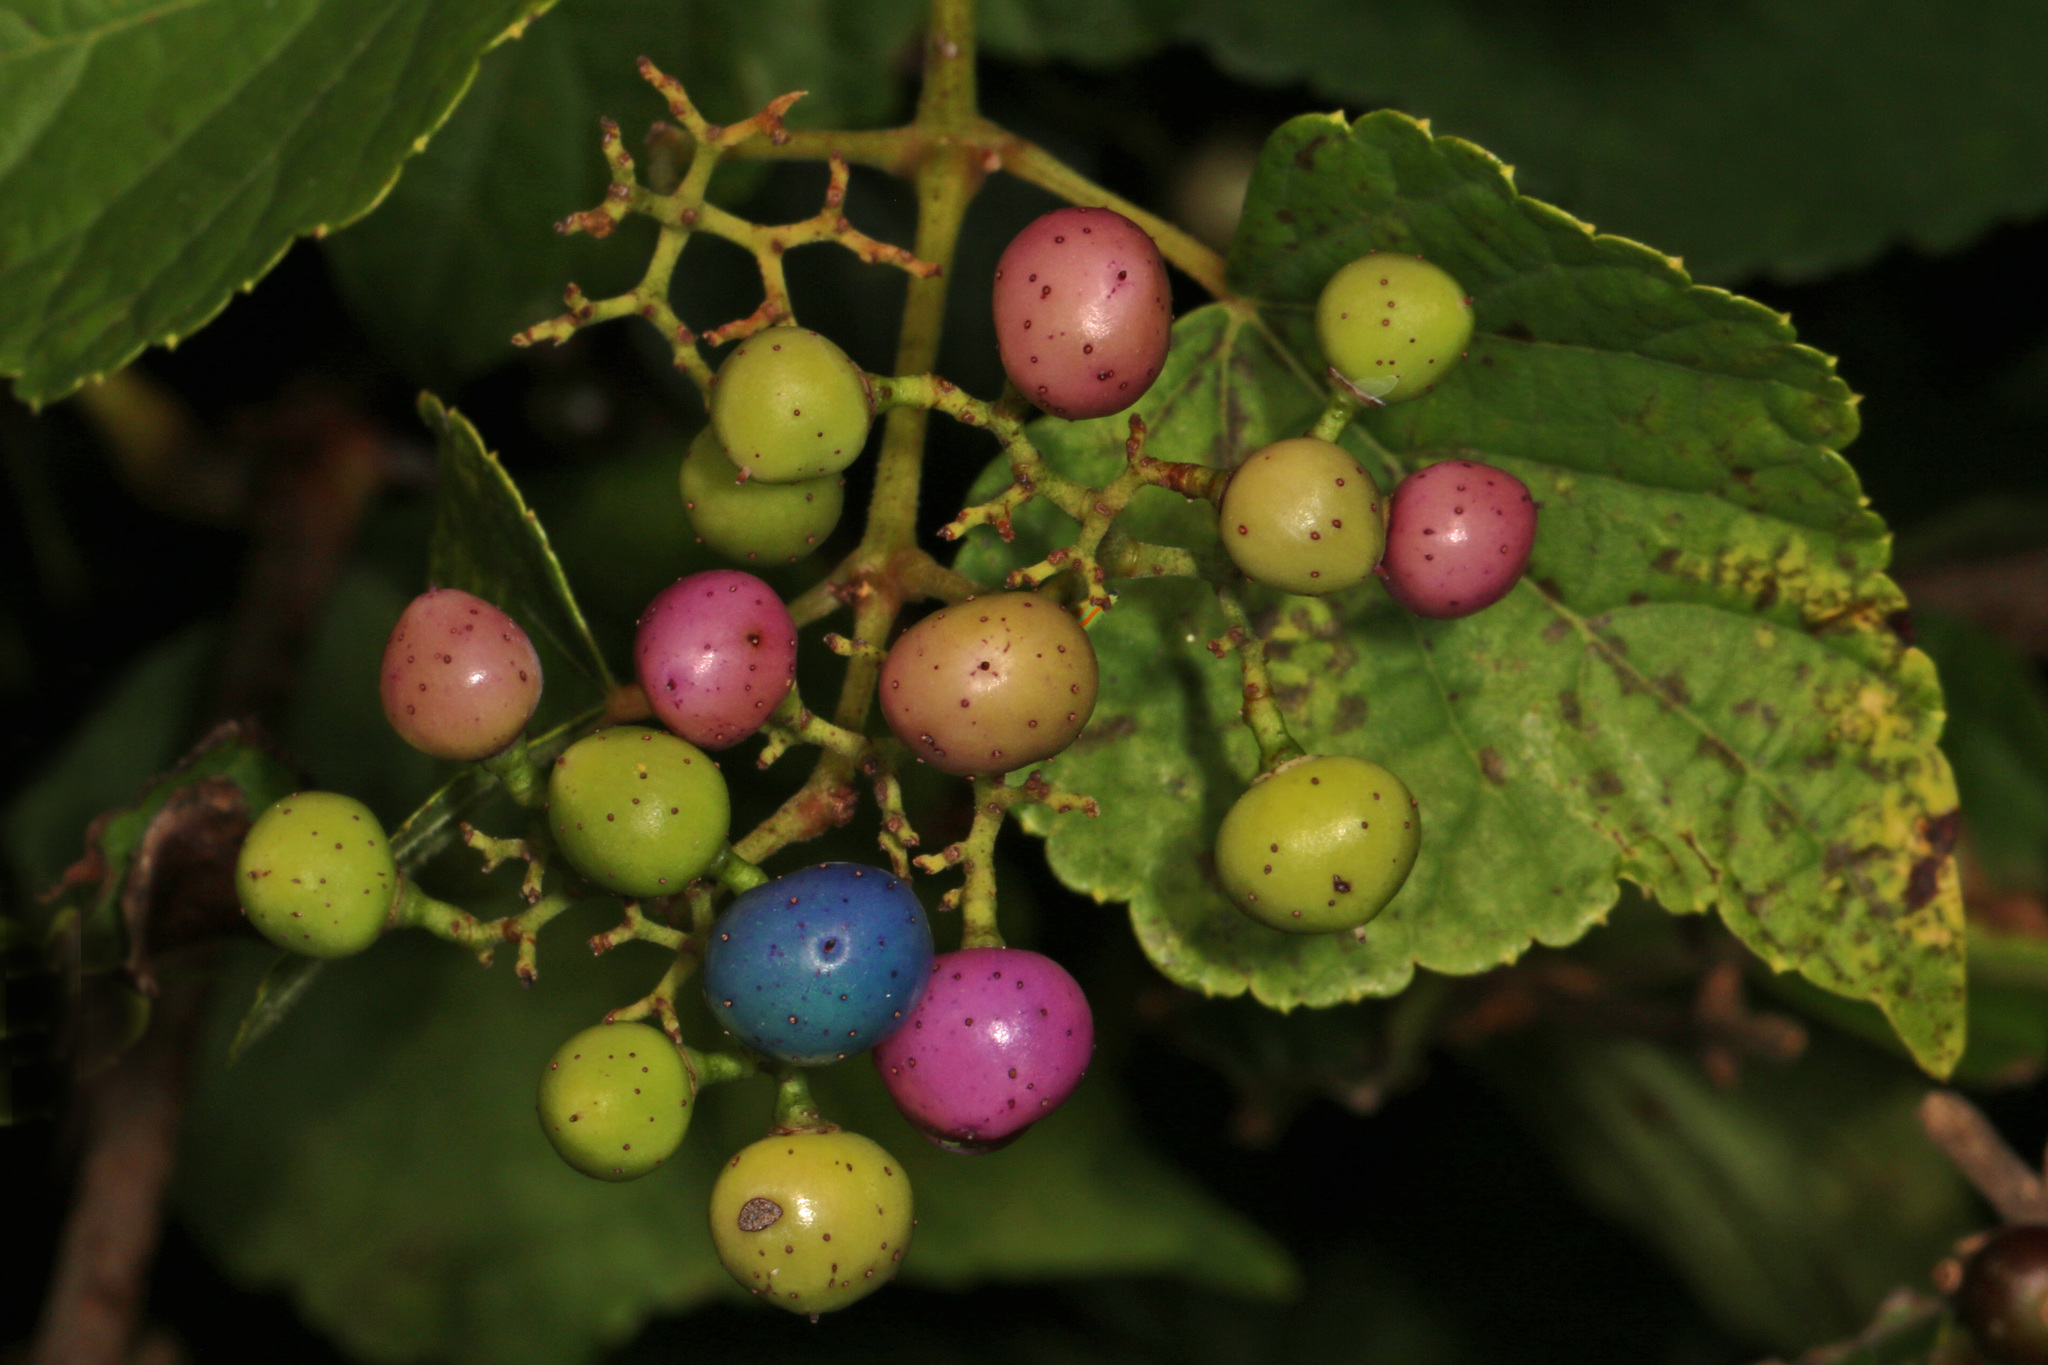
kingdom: Plantae
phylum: Tracheophyta
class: Magnoliopsida
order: Vitales
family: Vitaceae
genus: Ampelopsis
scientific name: Ampelopsis glandulosa
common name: Amur peppervine
